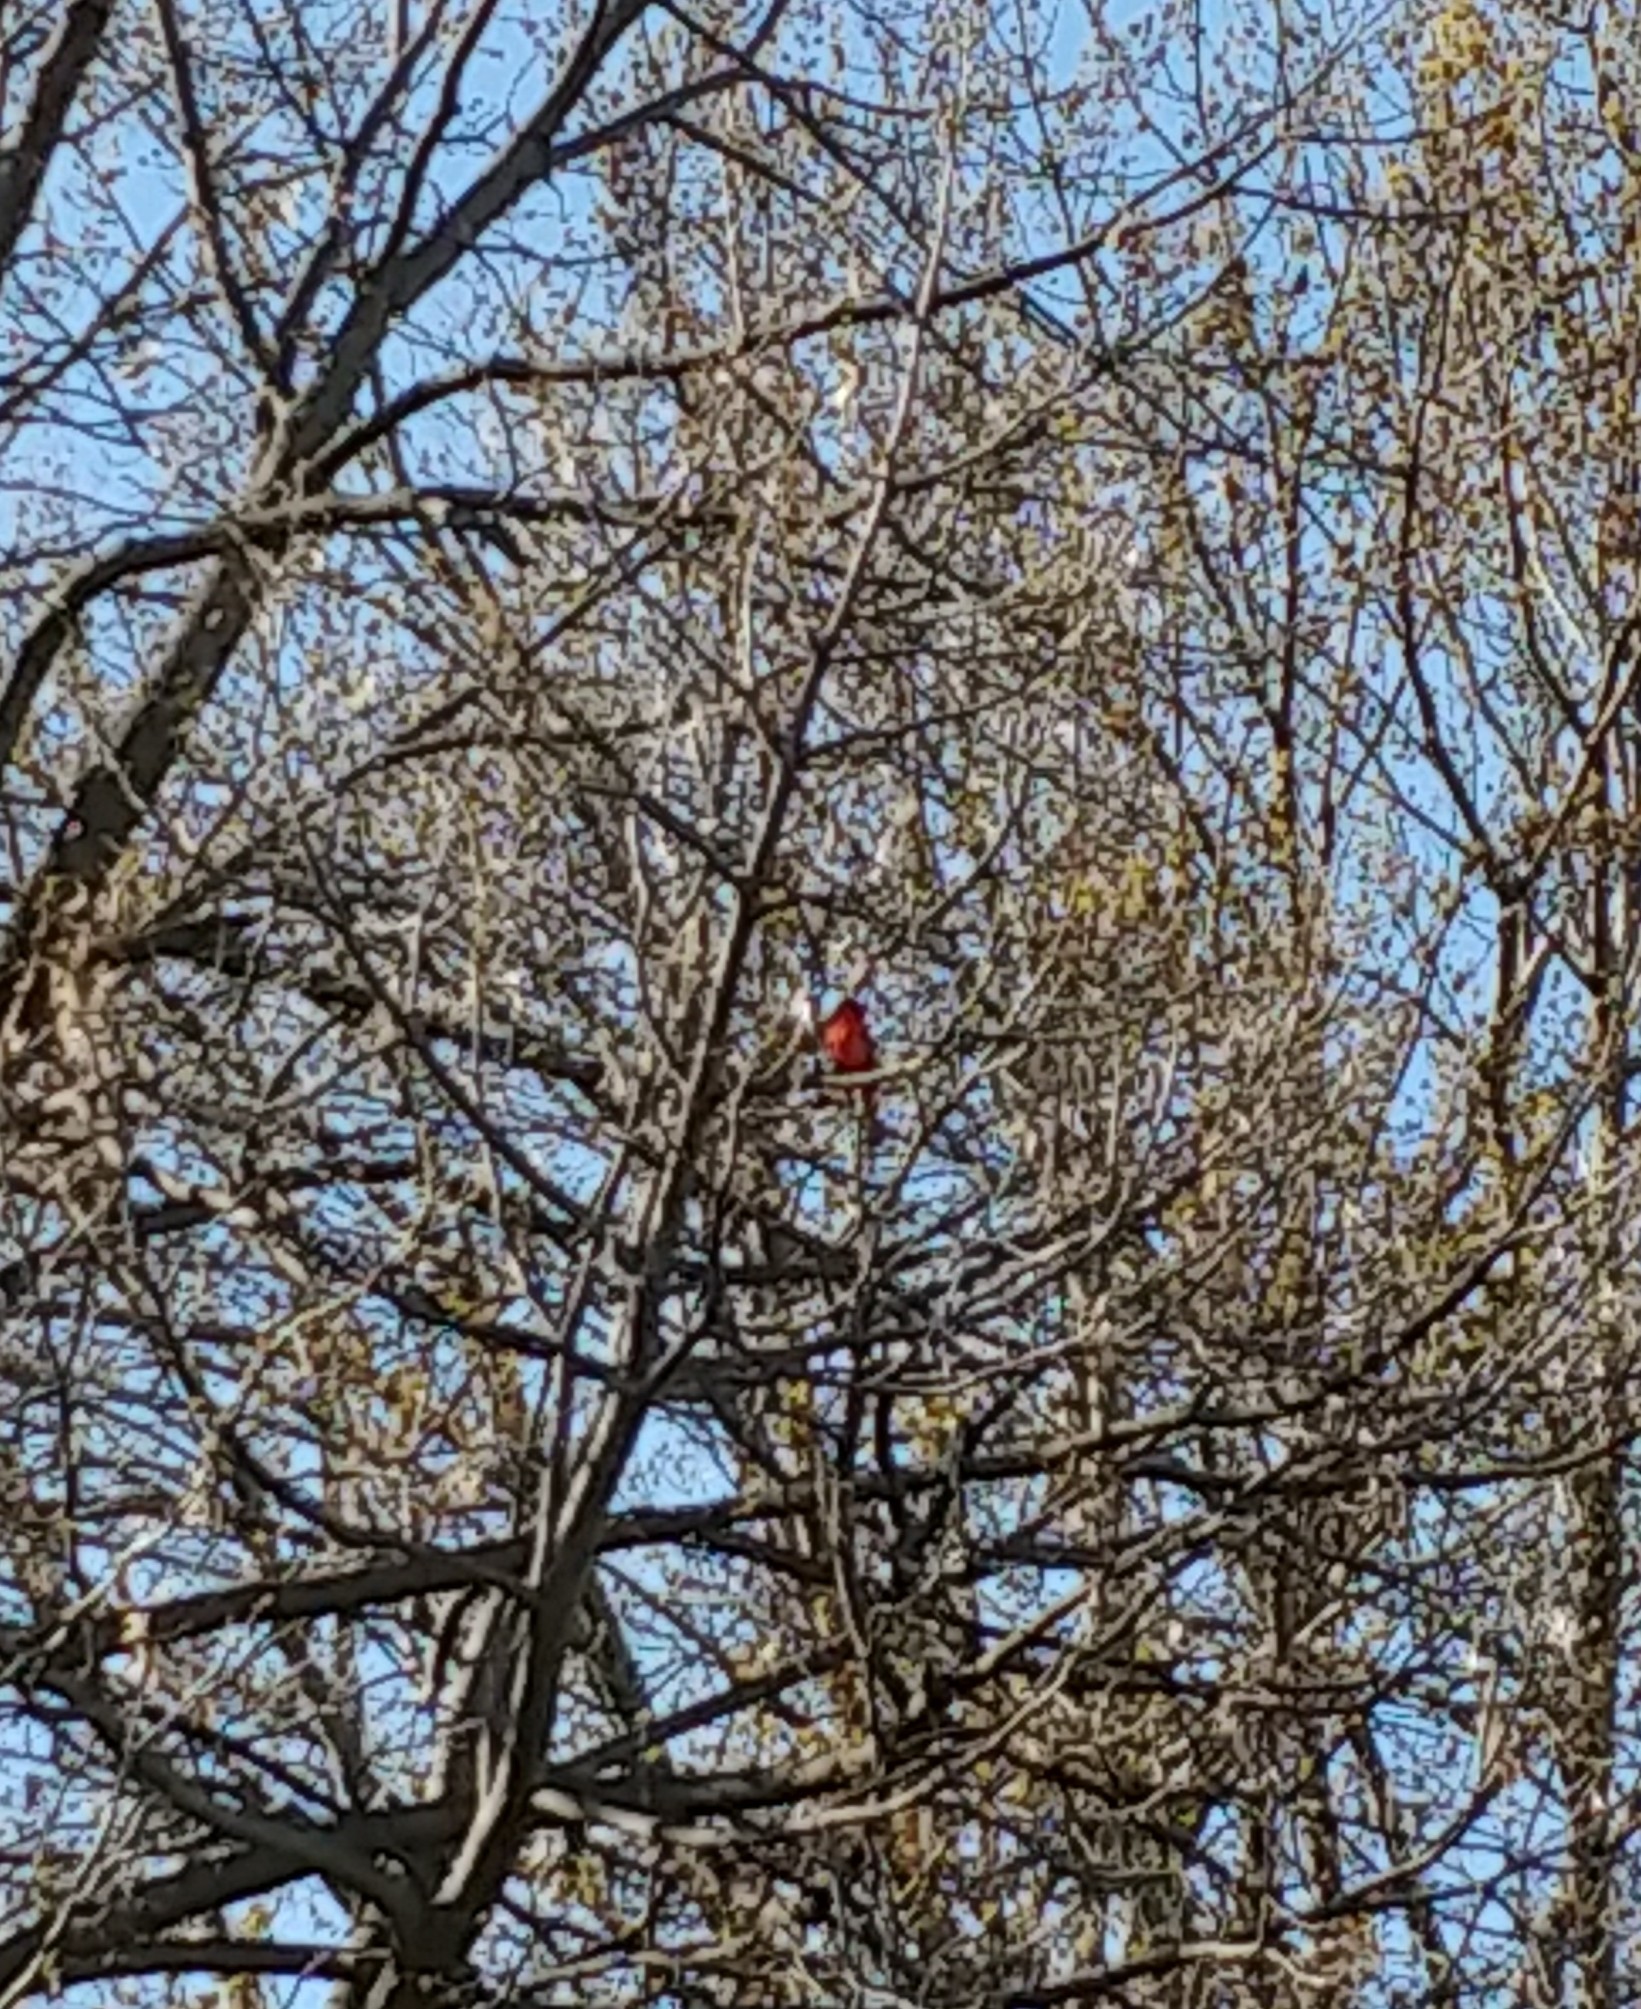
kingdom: Animalia
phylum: Chordata
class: Aves
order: Passeriformes
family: Cardinalidae
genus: Cardinalis
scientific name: Cardinalis cardinalis
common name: Northern cardinal
